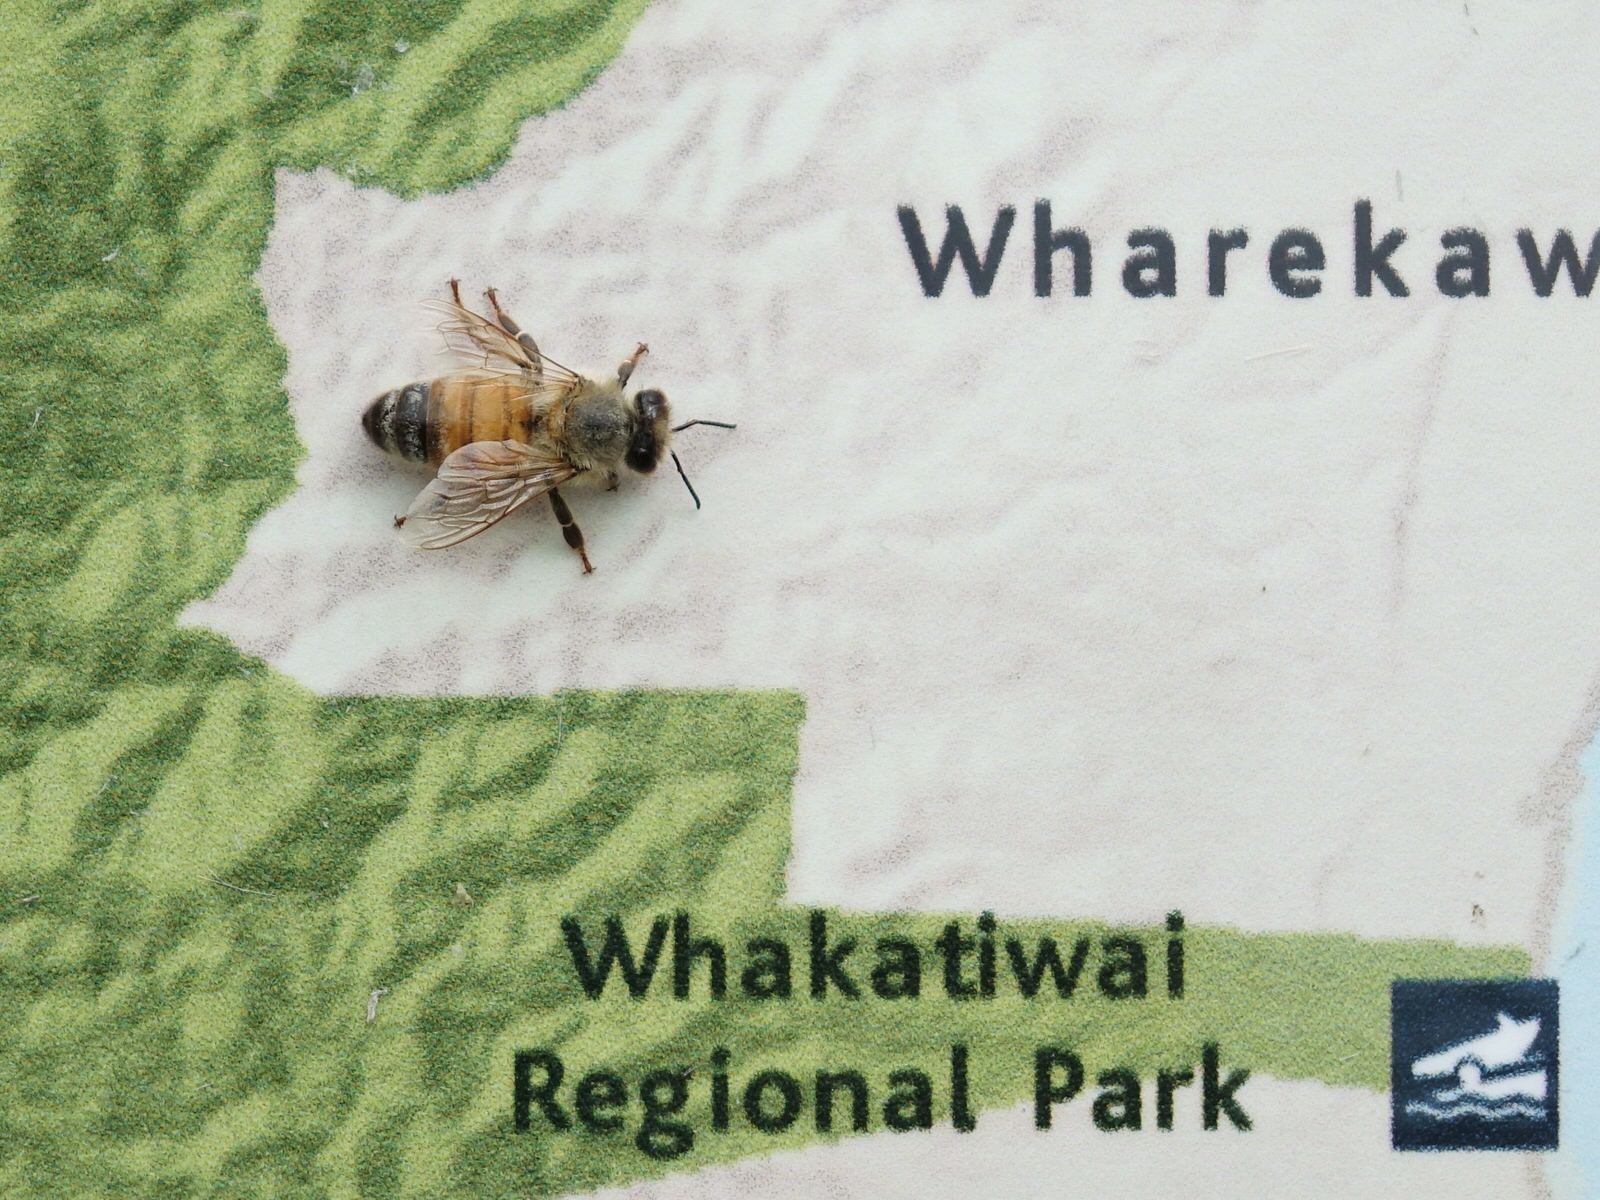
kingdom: Animalia
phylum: Arthropoda
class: Insecta
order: Hymenoptera
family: Apidae
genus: Apis
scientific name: Apis mellifera
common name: Honey bee
